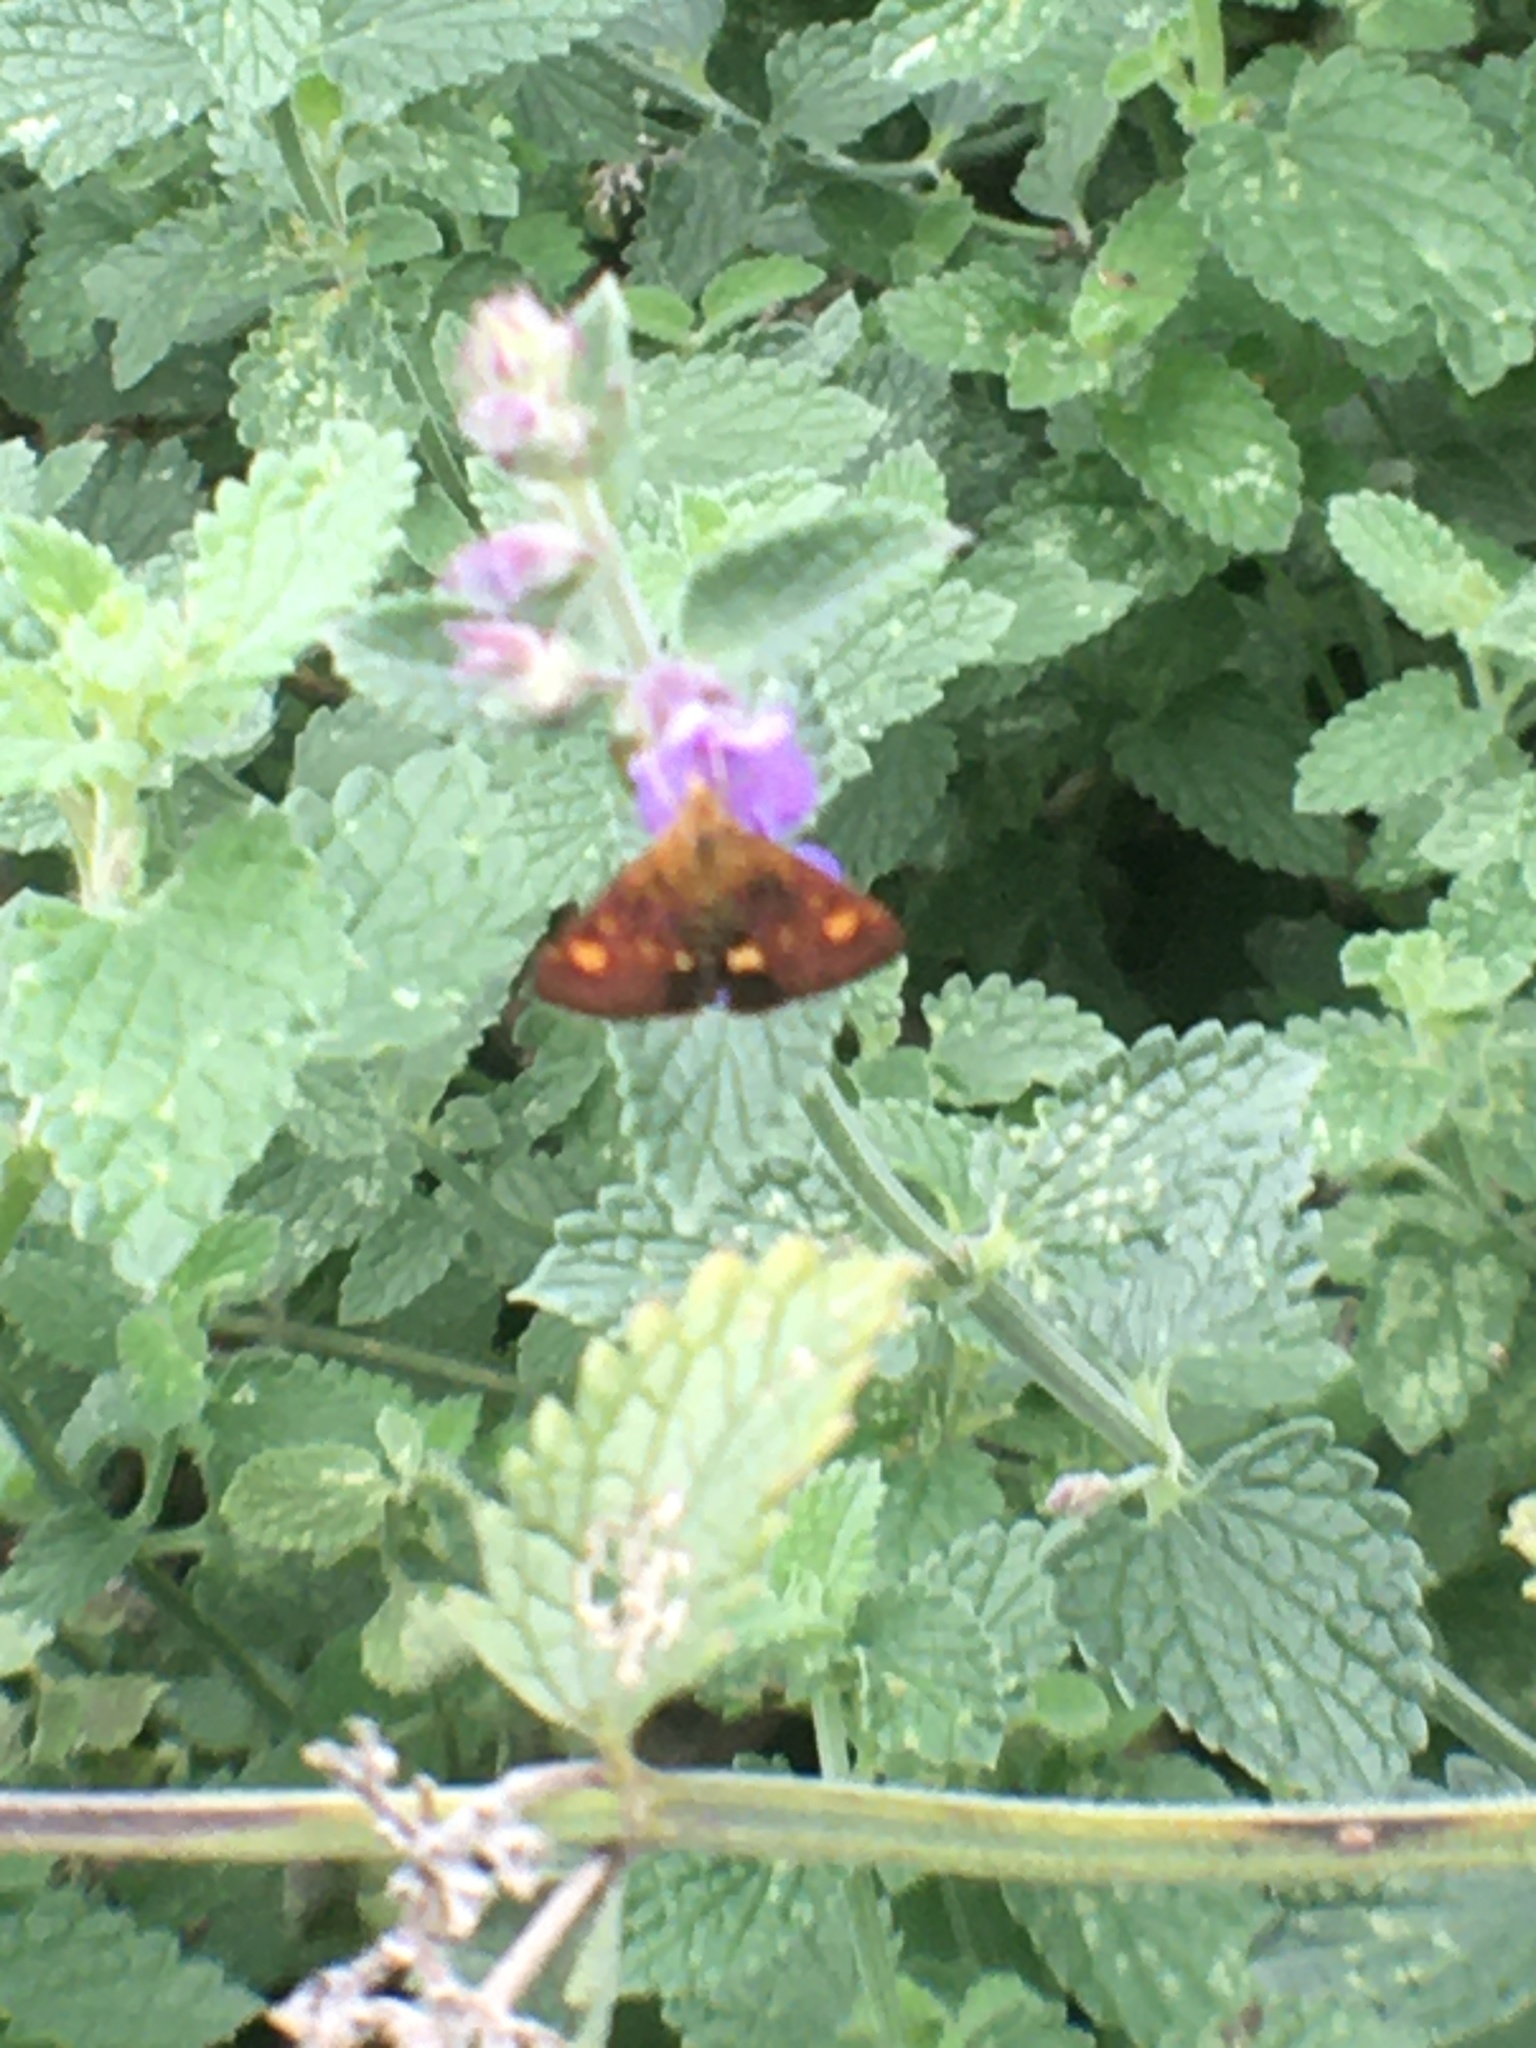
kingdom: Animalia
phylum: Arthropoda
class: Insecta
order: Lepidoptera
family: Crambidae
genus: Pyrausta
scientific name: Pyrausta aurata
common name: Small purple & gold
